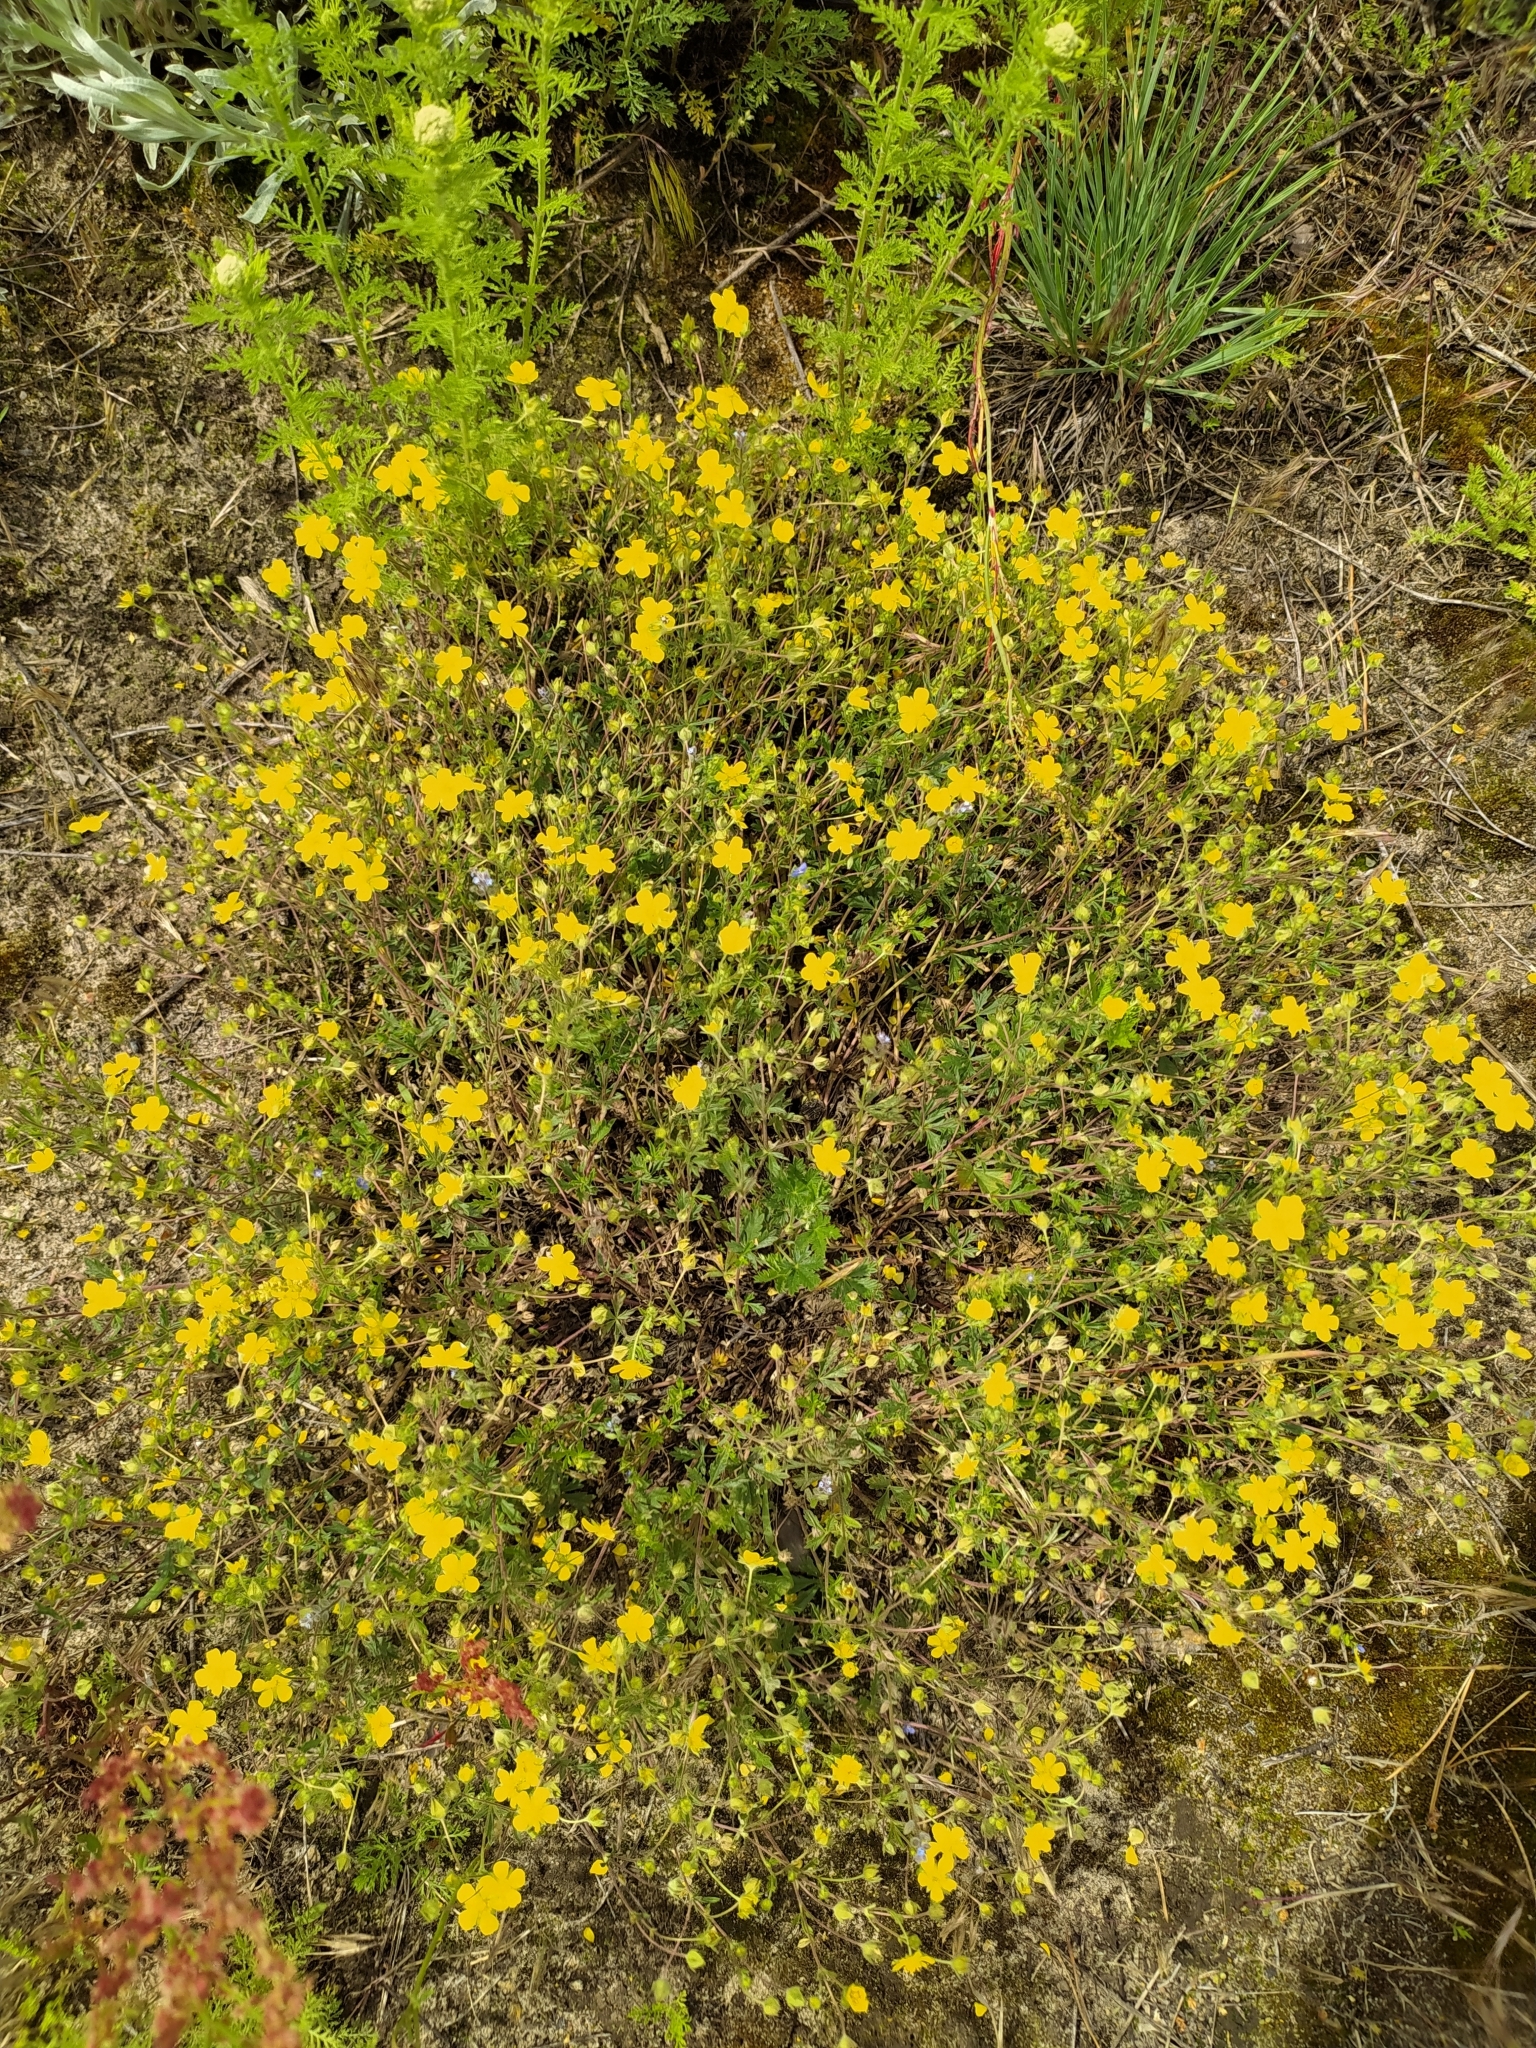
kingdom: Plantae
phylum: Tracheophyta
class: Magnoliopsida
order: Rosales
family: Rosaceae
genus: Potentilla
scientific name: Potentilla collina
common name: Palmleaf cinquefoil
